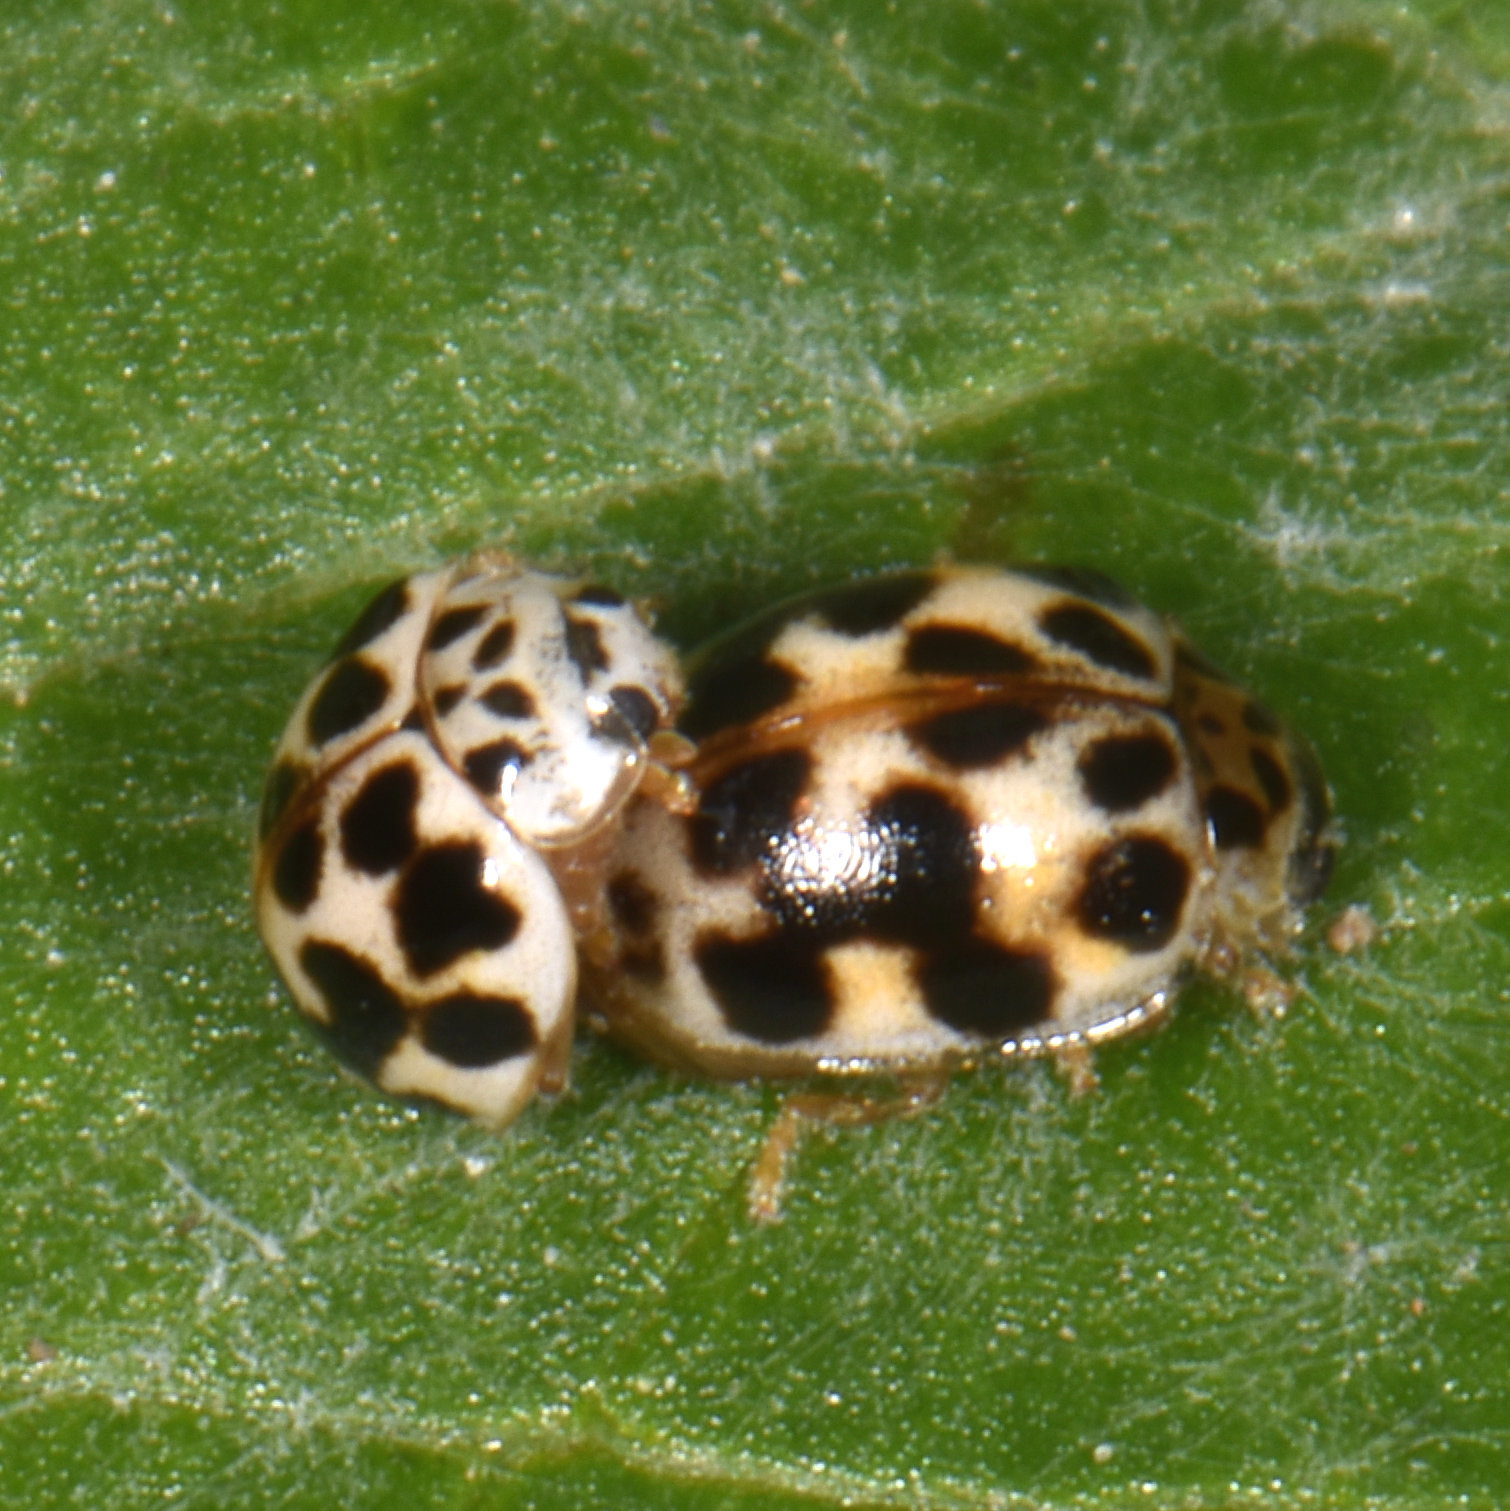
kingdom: Animalia
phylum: Arthropoda
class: Insecta
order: Coleoptera
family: Coccinellidae
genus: Psyllobora
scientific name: Psyllobora vigintimaculata
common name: Ladybird beetle
